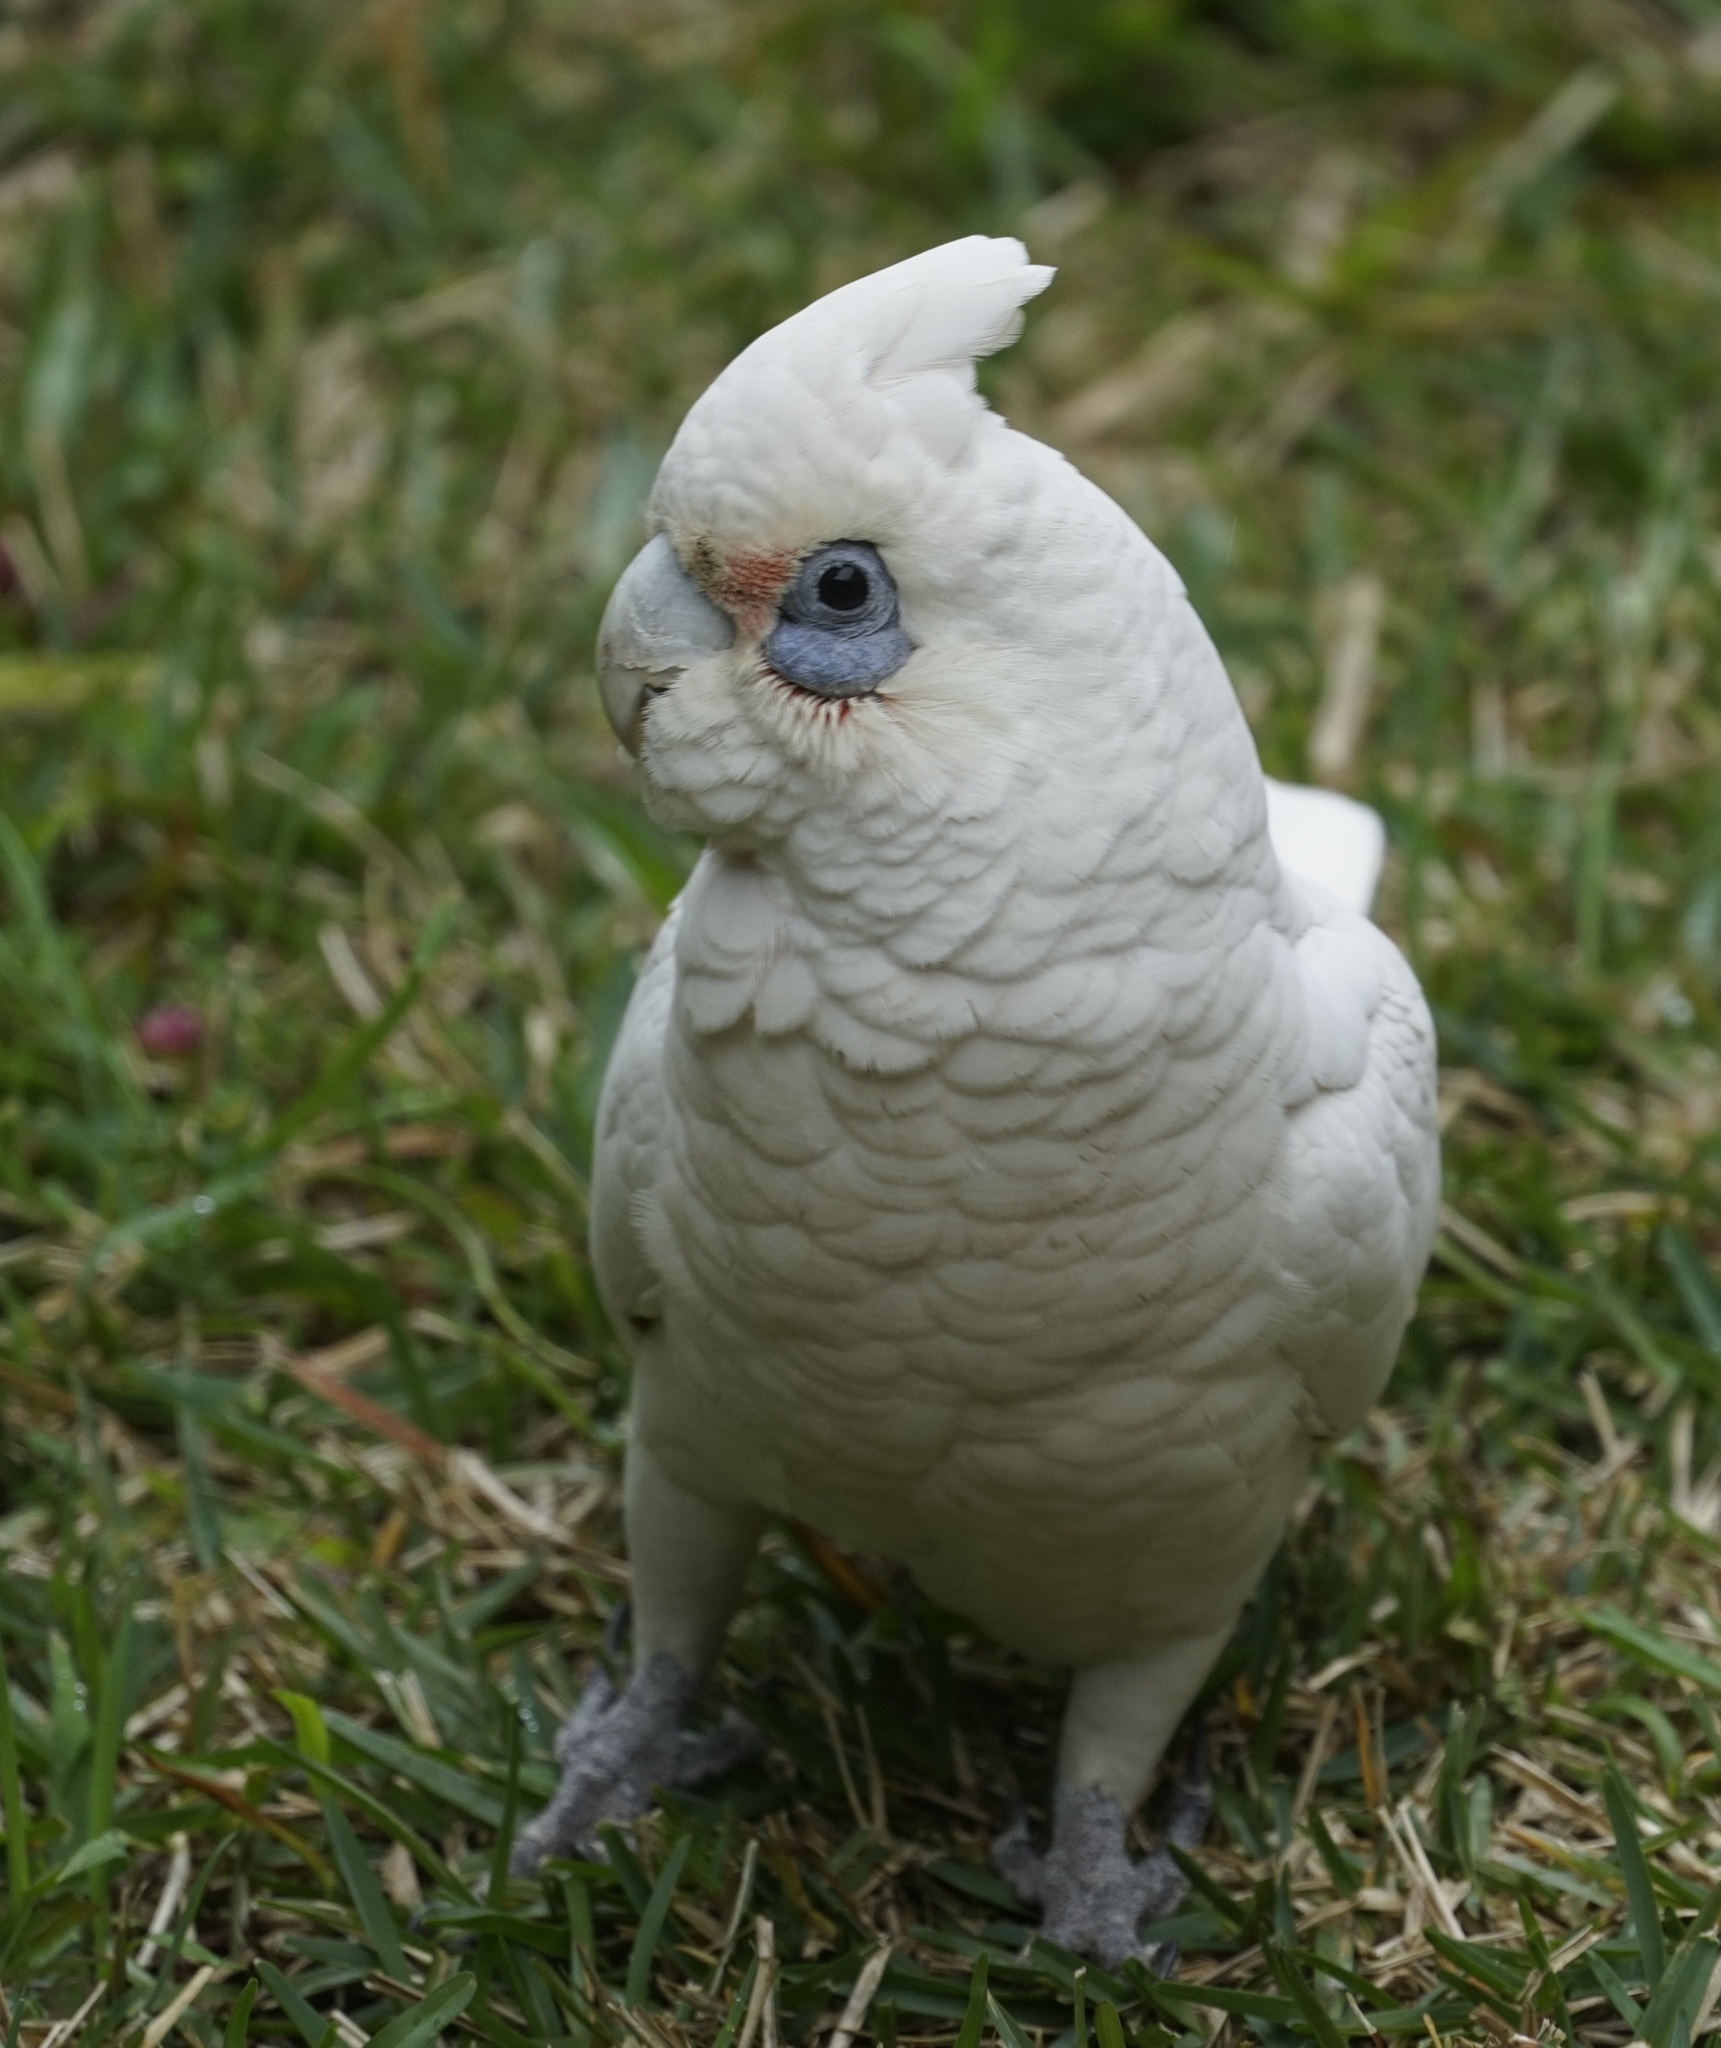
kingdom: Animalia
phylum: Chordata
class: Aves
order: Psittaciformes
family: Psittacidae
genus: Cacatua
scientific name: Cacatua sanguinea
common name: Little corella
